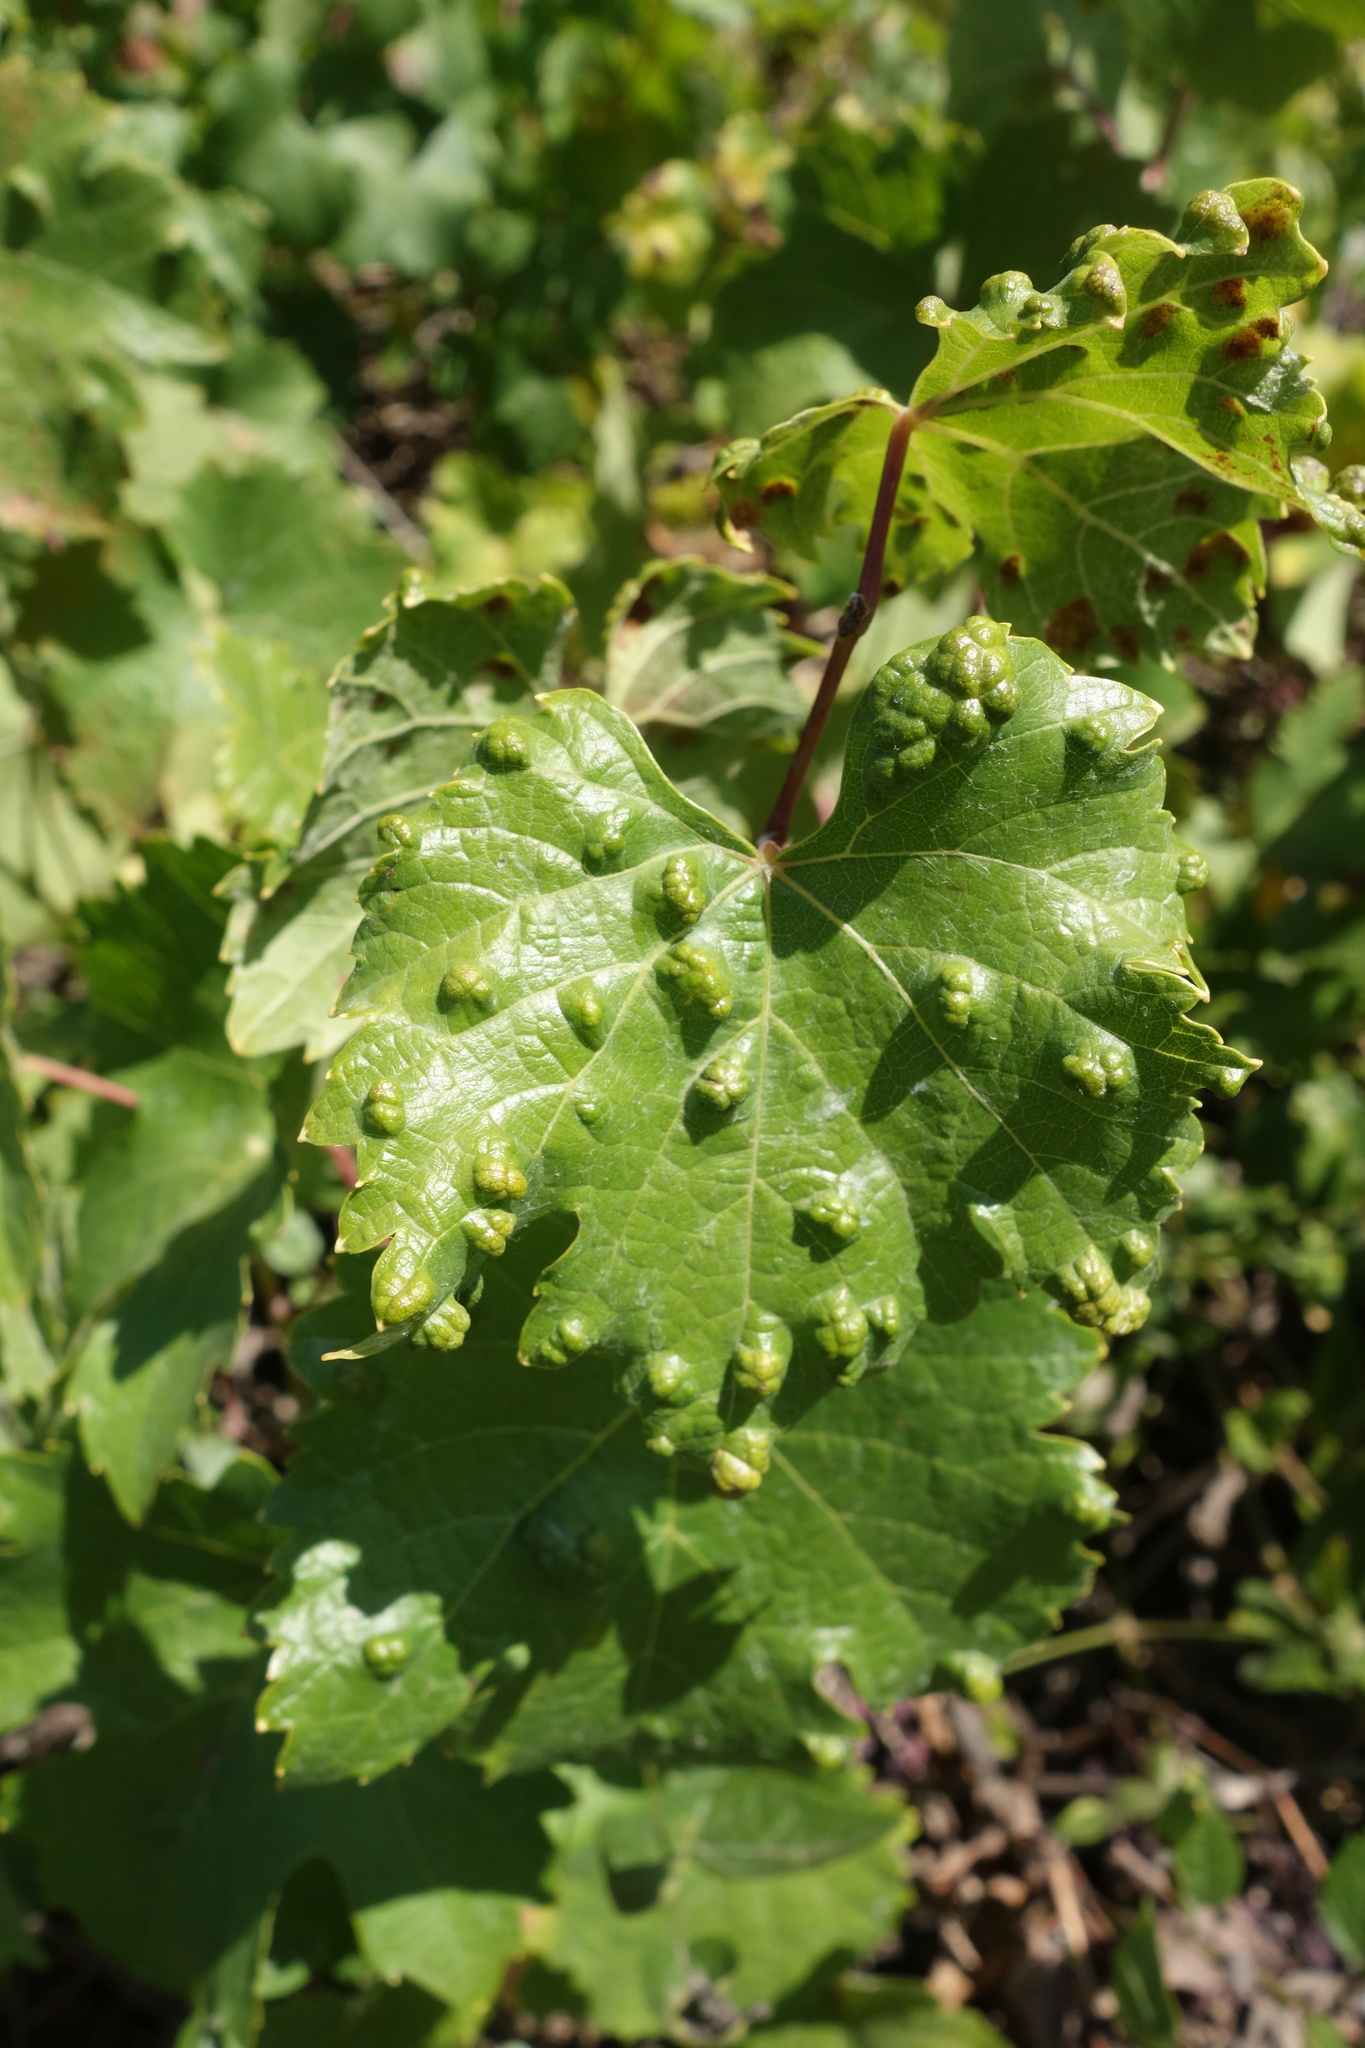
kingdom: Animalia
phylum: Arthropoda
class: Arachnida
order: Trombidiformes
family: Eriophyidae
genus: Colomerus
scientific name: Colomerus vitis
